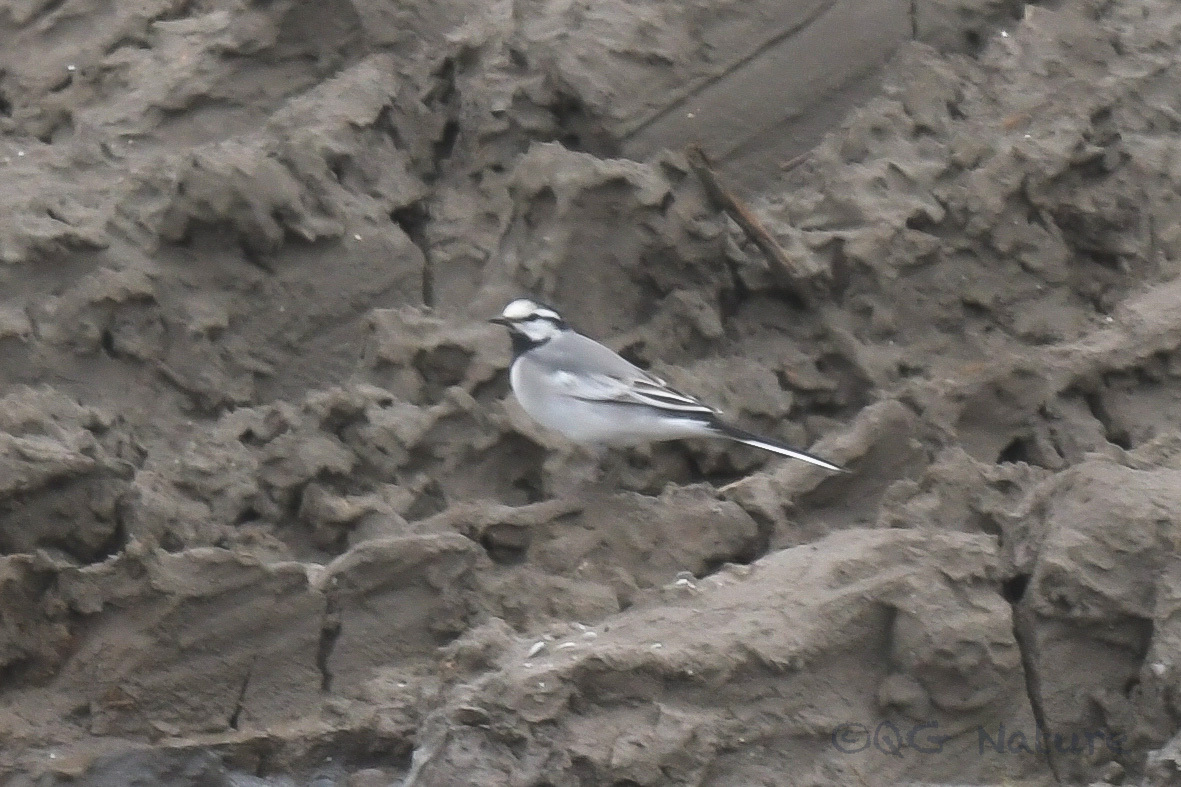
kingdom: Animalia
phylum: Chordata
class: Aves
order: Passeriformes
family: Motacillidae
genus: Motacilla
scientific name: Motacilla alba
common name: White wagtail
